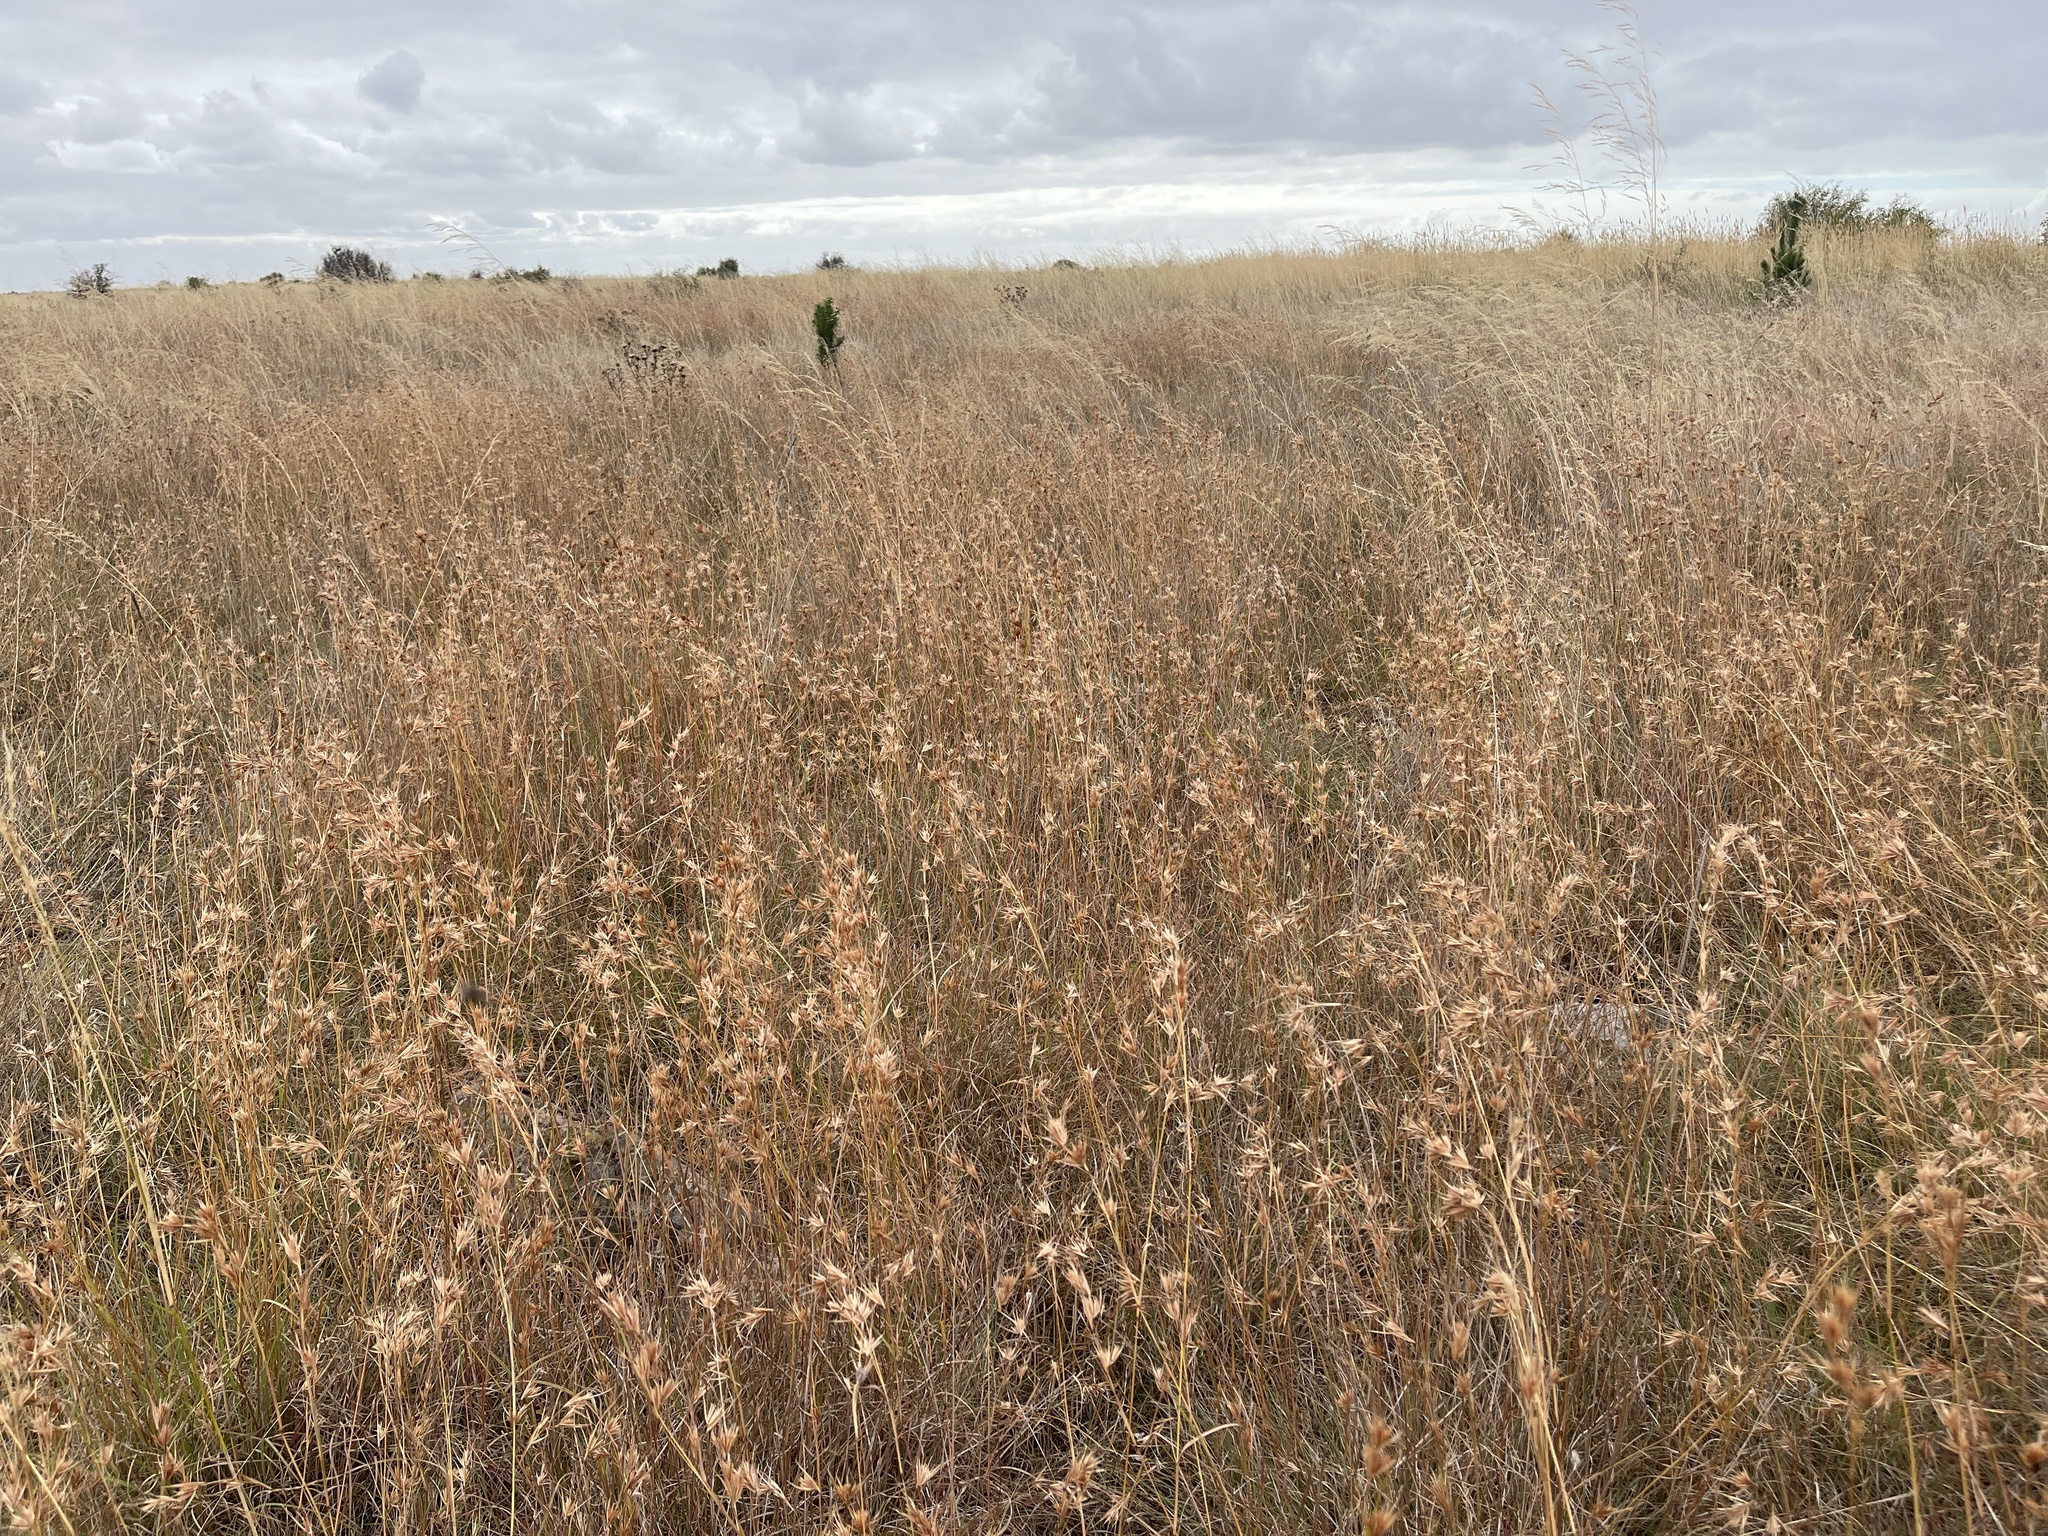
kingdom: Plantae
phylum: Tracheophyta
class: Liliopsida
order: Poales
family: Poaceae
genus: Themeda
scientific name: Themeda triandra
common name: Kangaroo grass
